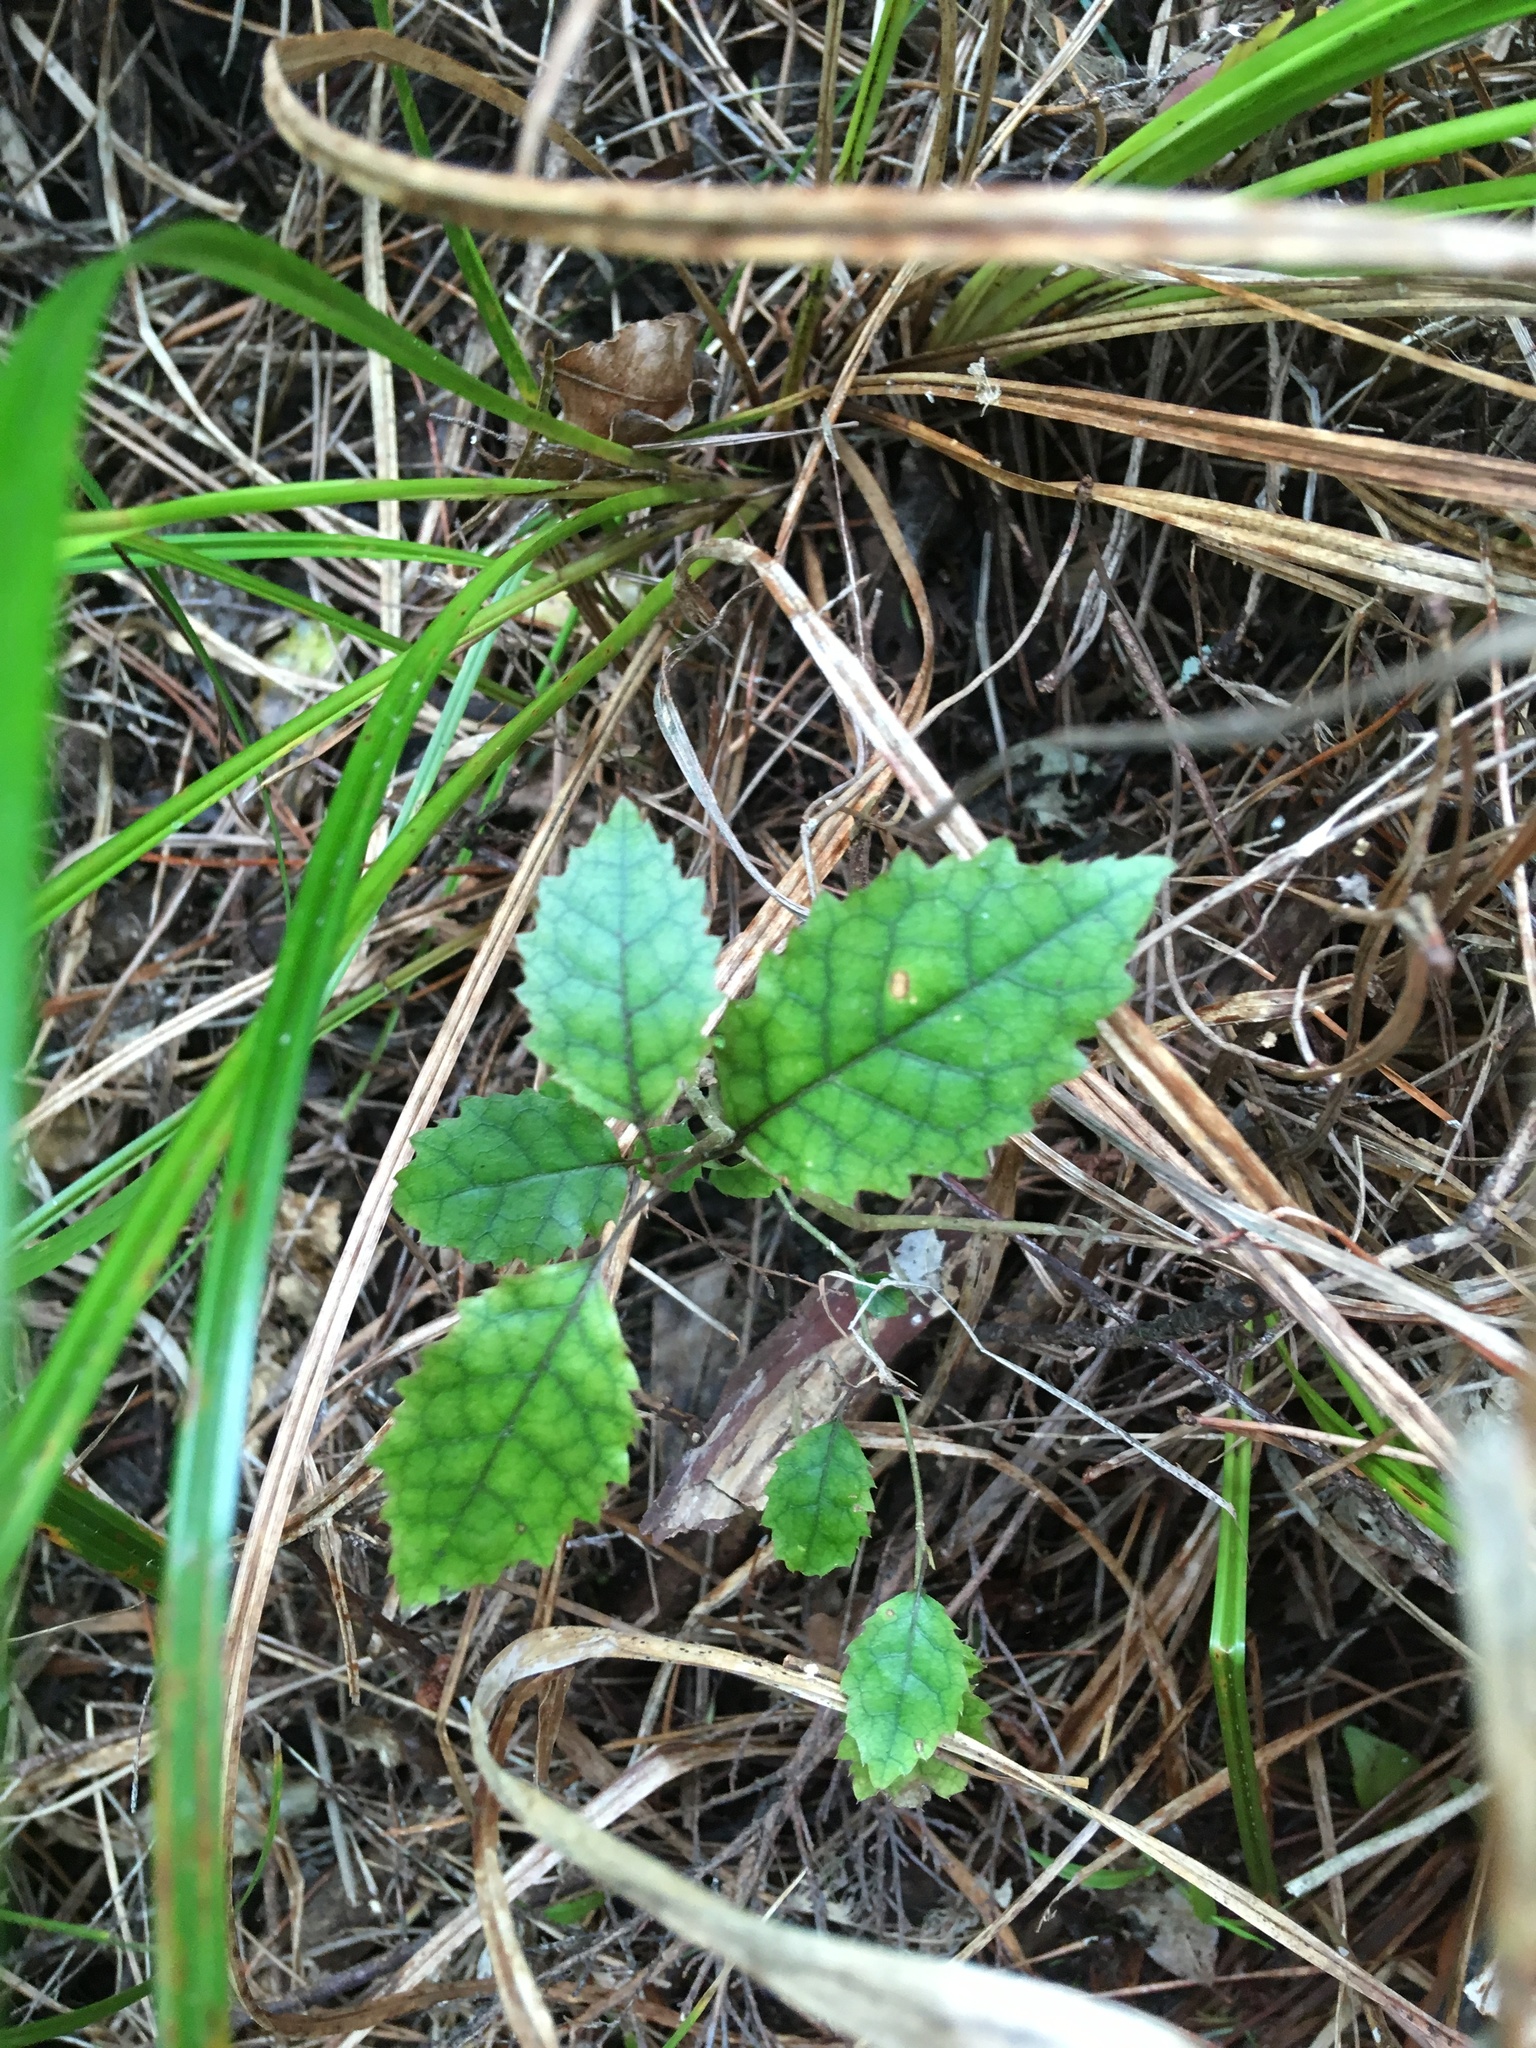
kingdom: Plantae
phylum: Tracheophyta
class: Magnoliopsida
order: Asterales
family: Rousseaceae
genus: Carpodetus
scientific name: Carpodetus serratus
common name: White mapau
